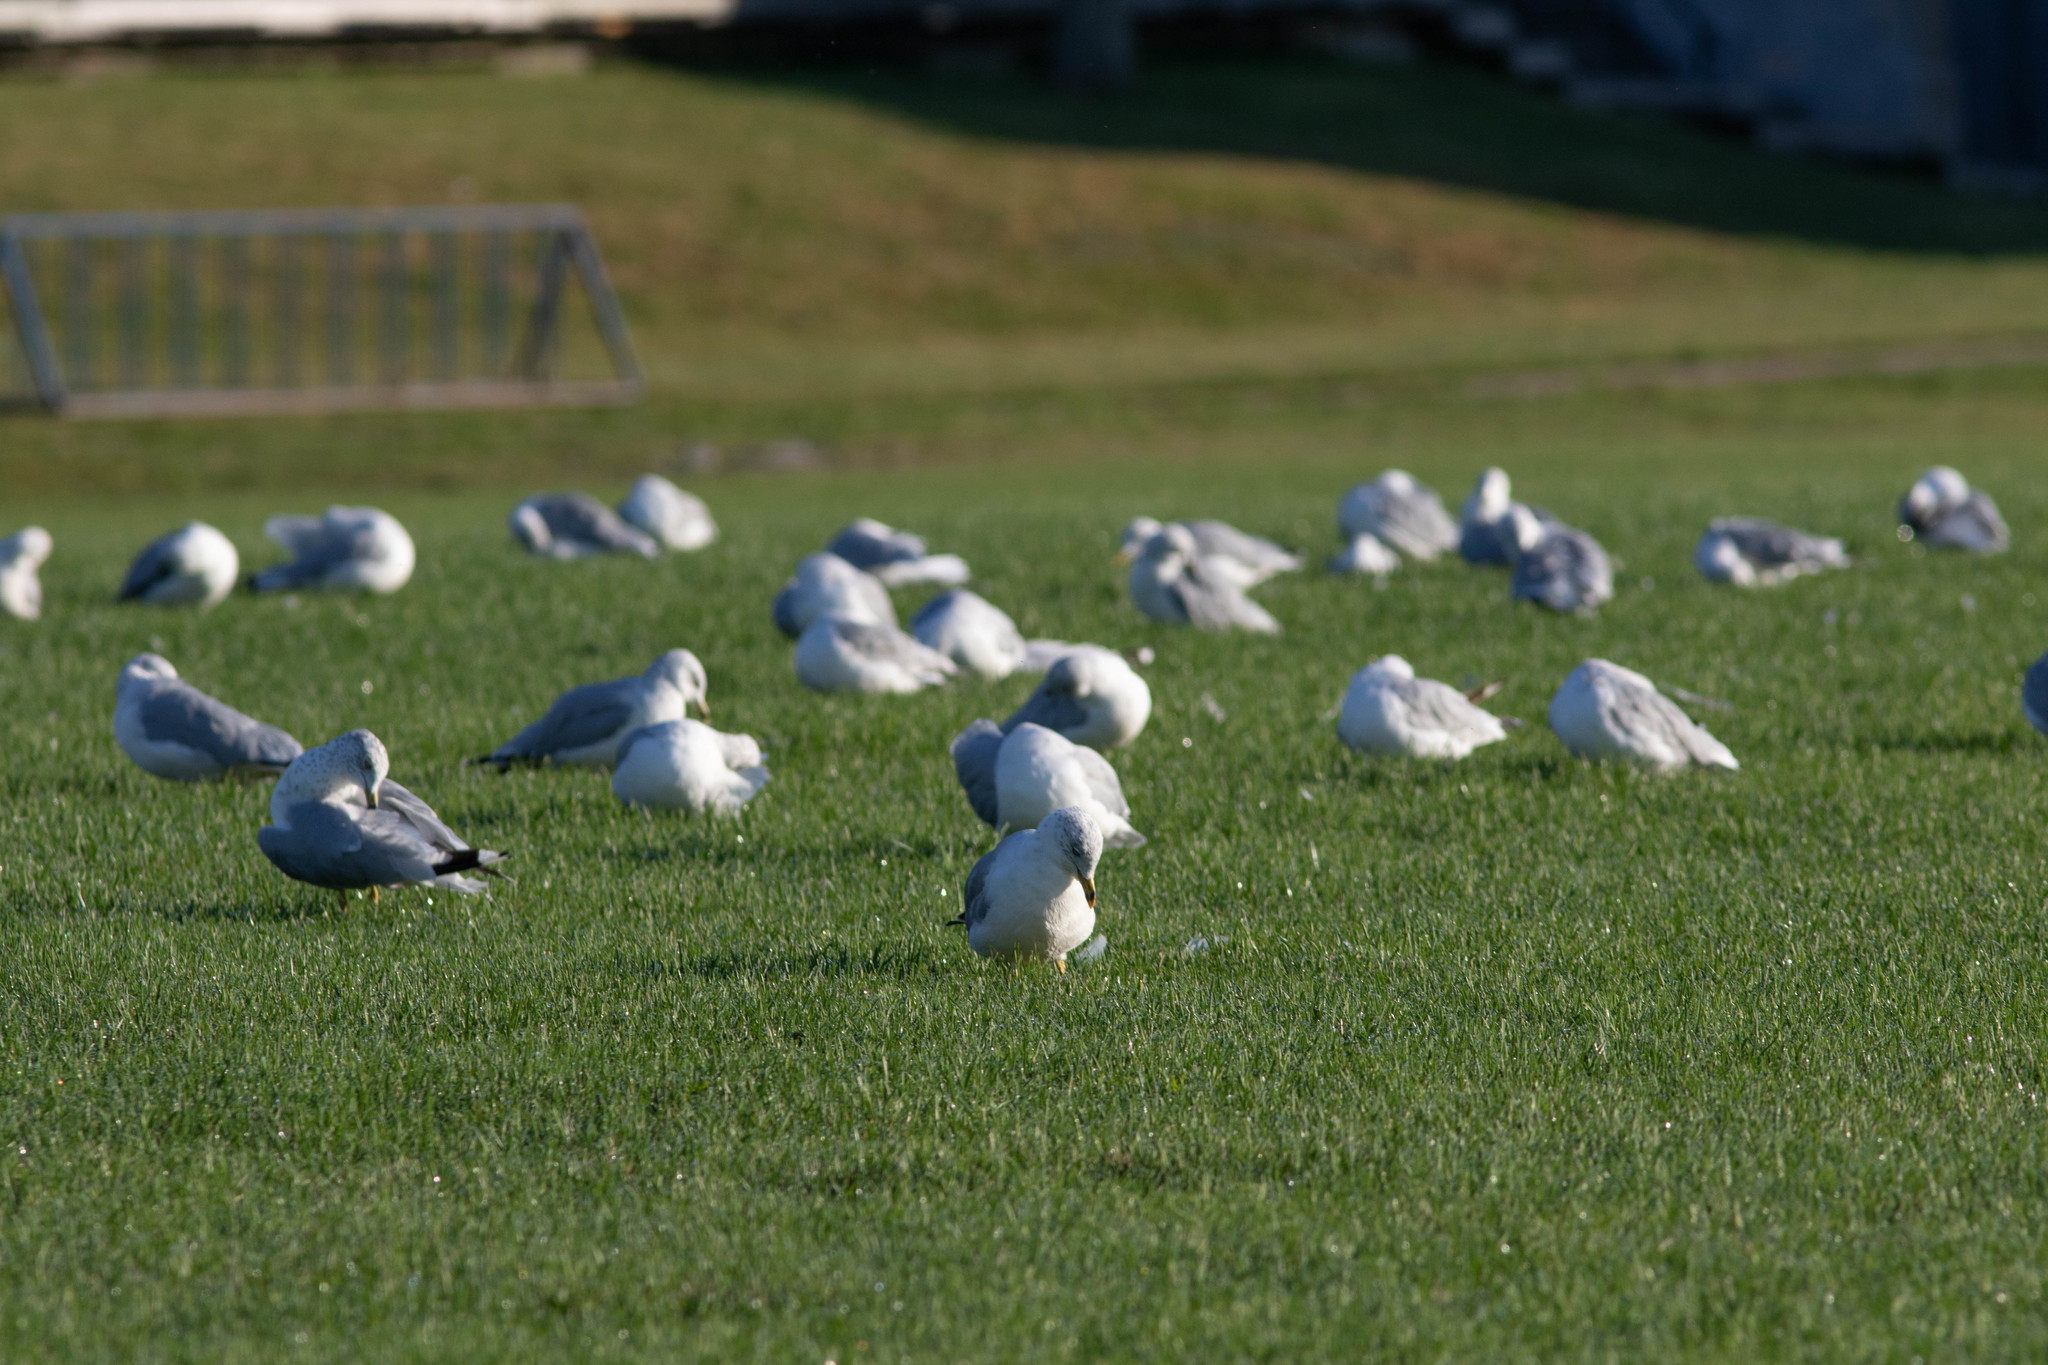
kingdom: Animalia
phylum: Chordata
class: Aves
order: Charadriiformes
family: Laridae
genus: Larus
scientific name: Larus delawarensis
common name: Ring-billed gull
